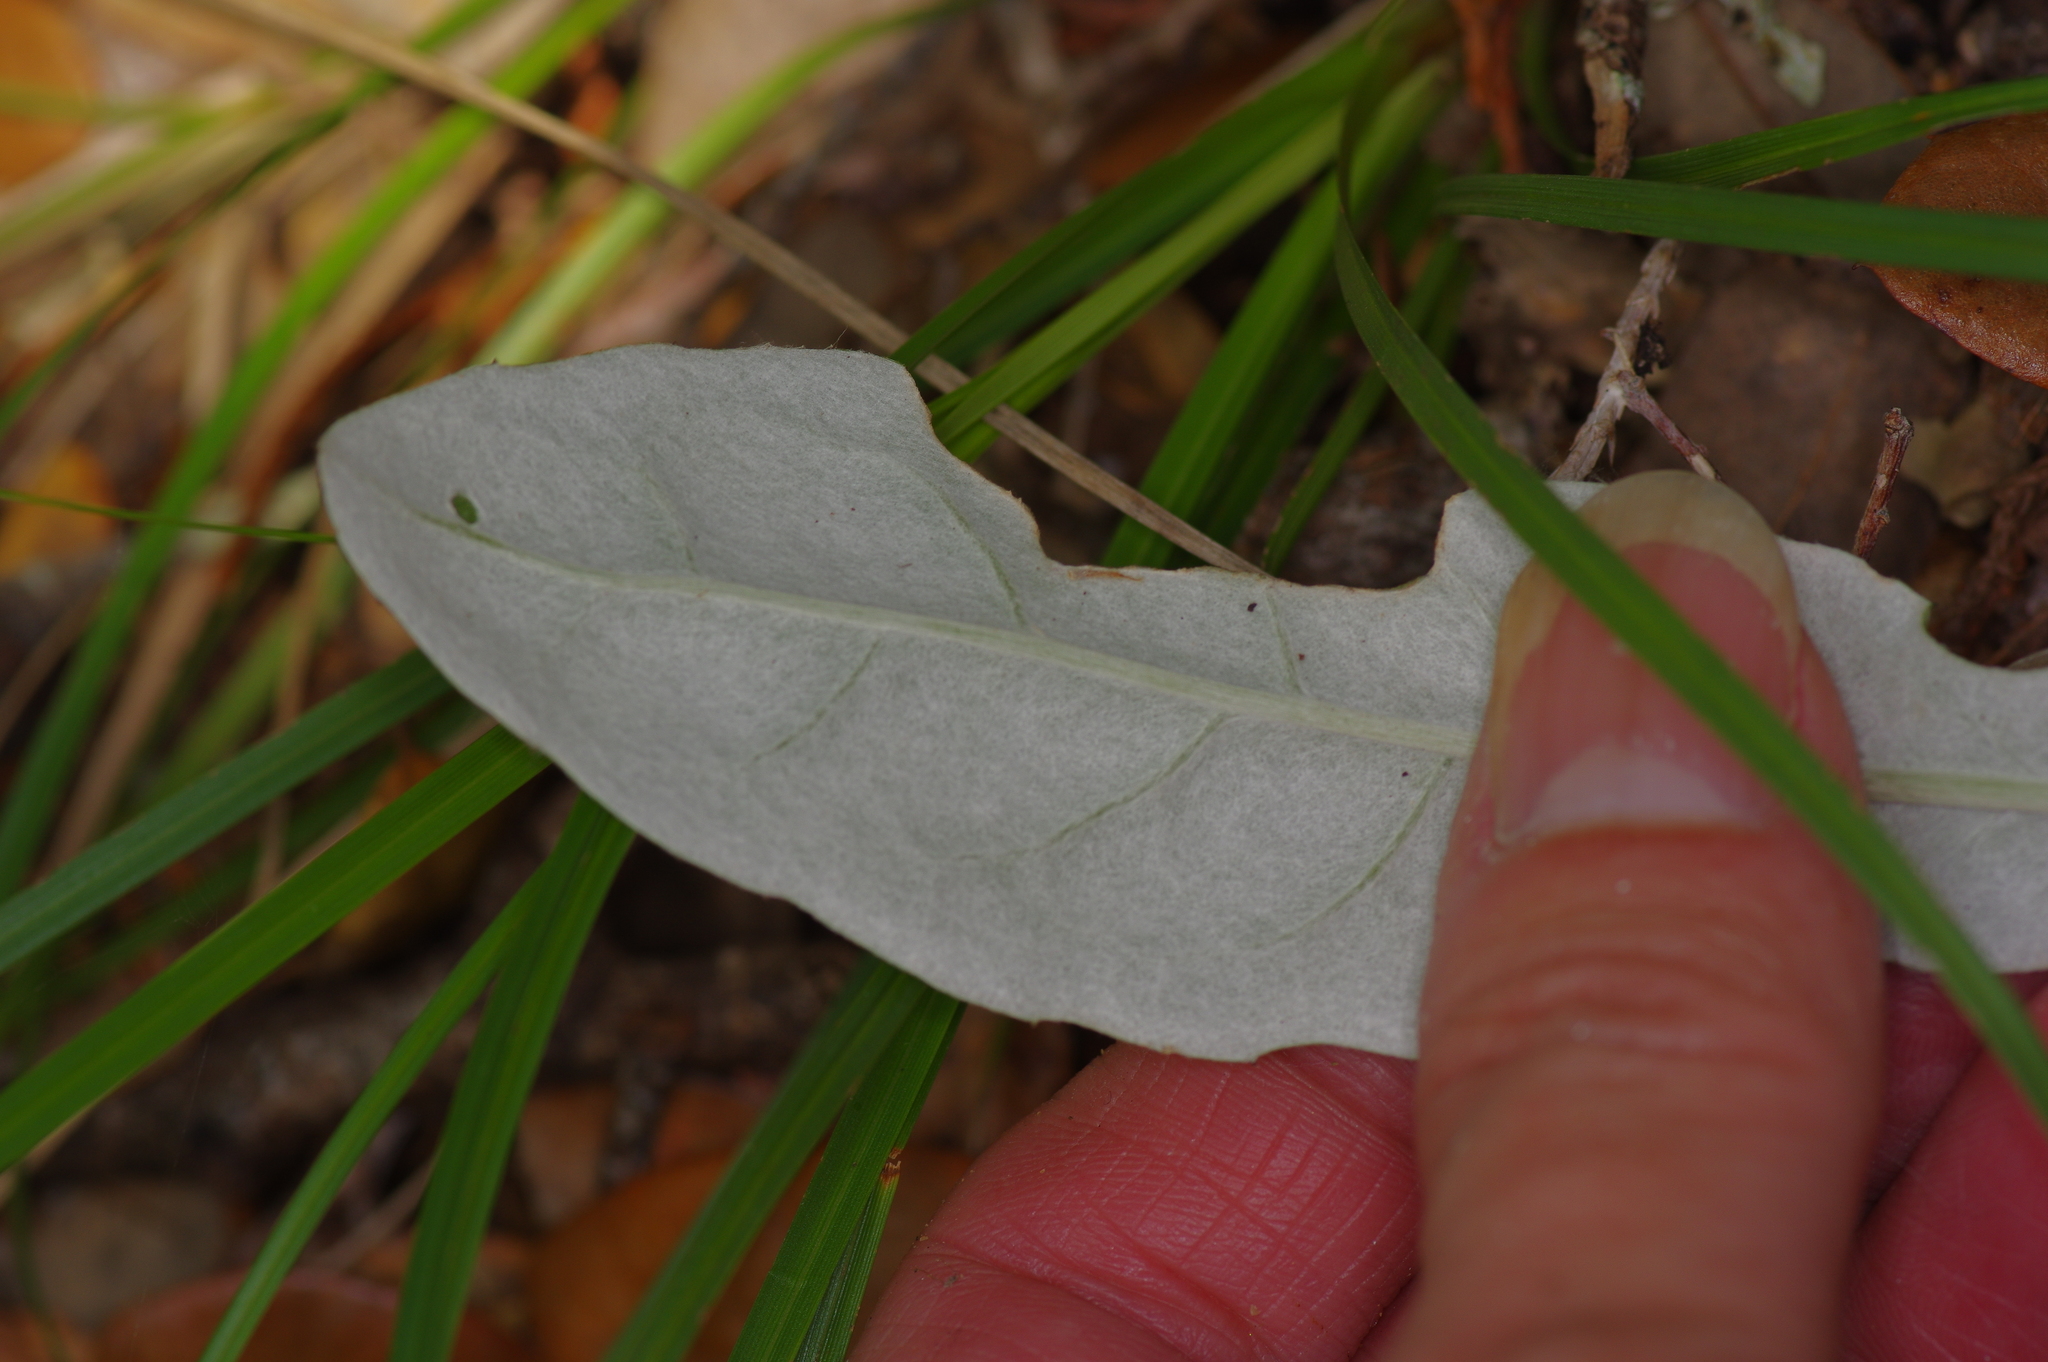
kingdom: Plantae
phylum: Tracheophyta
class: Magnoliopsida
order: Asterales
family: Asteraceae
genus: Chaptalia
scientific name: Chaptalia texana
